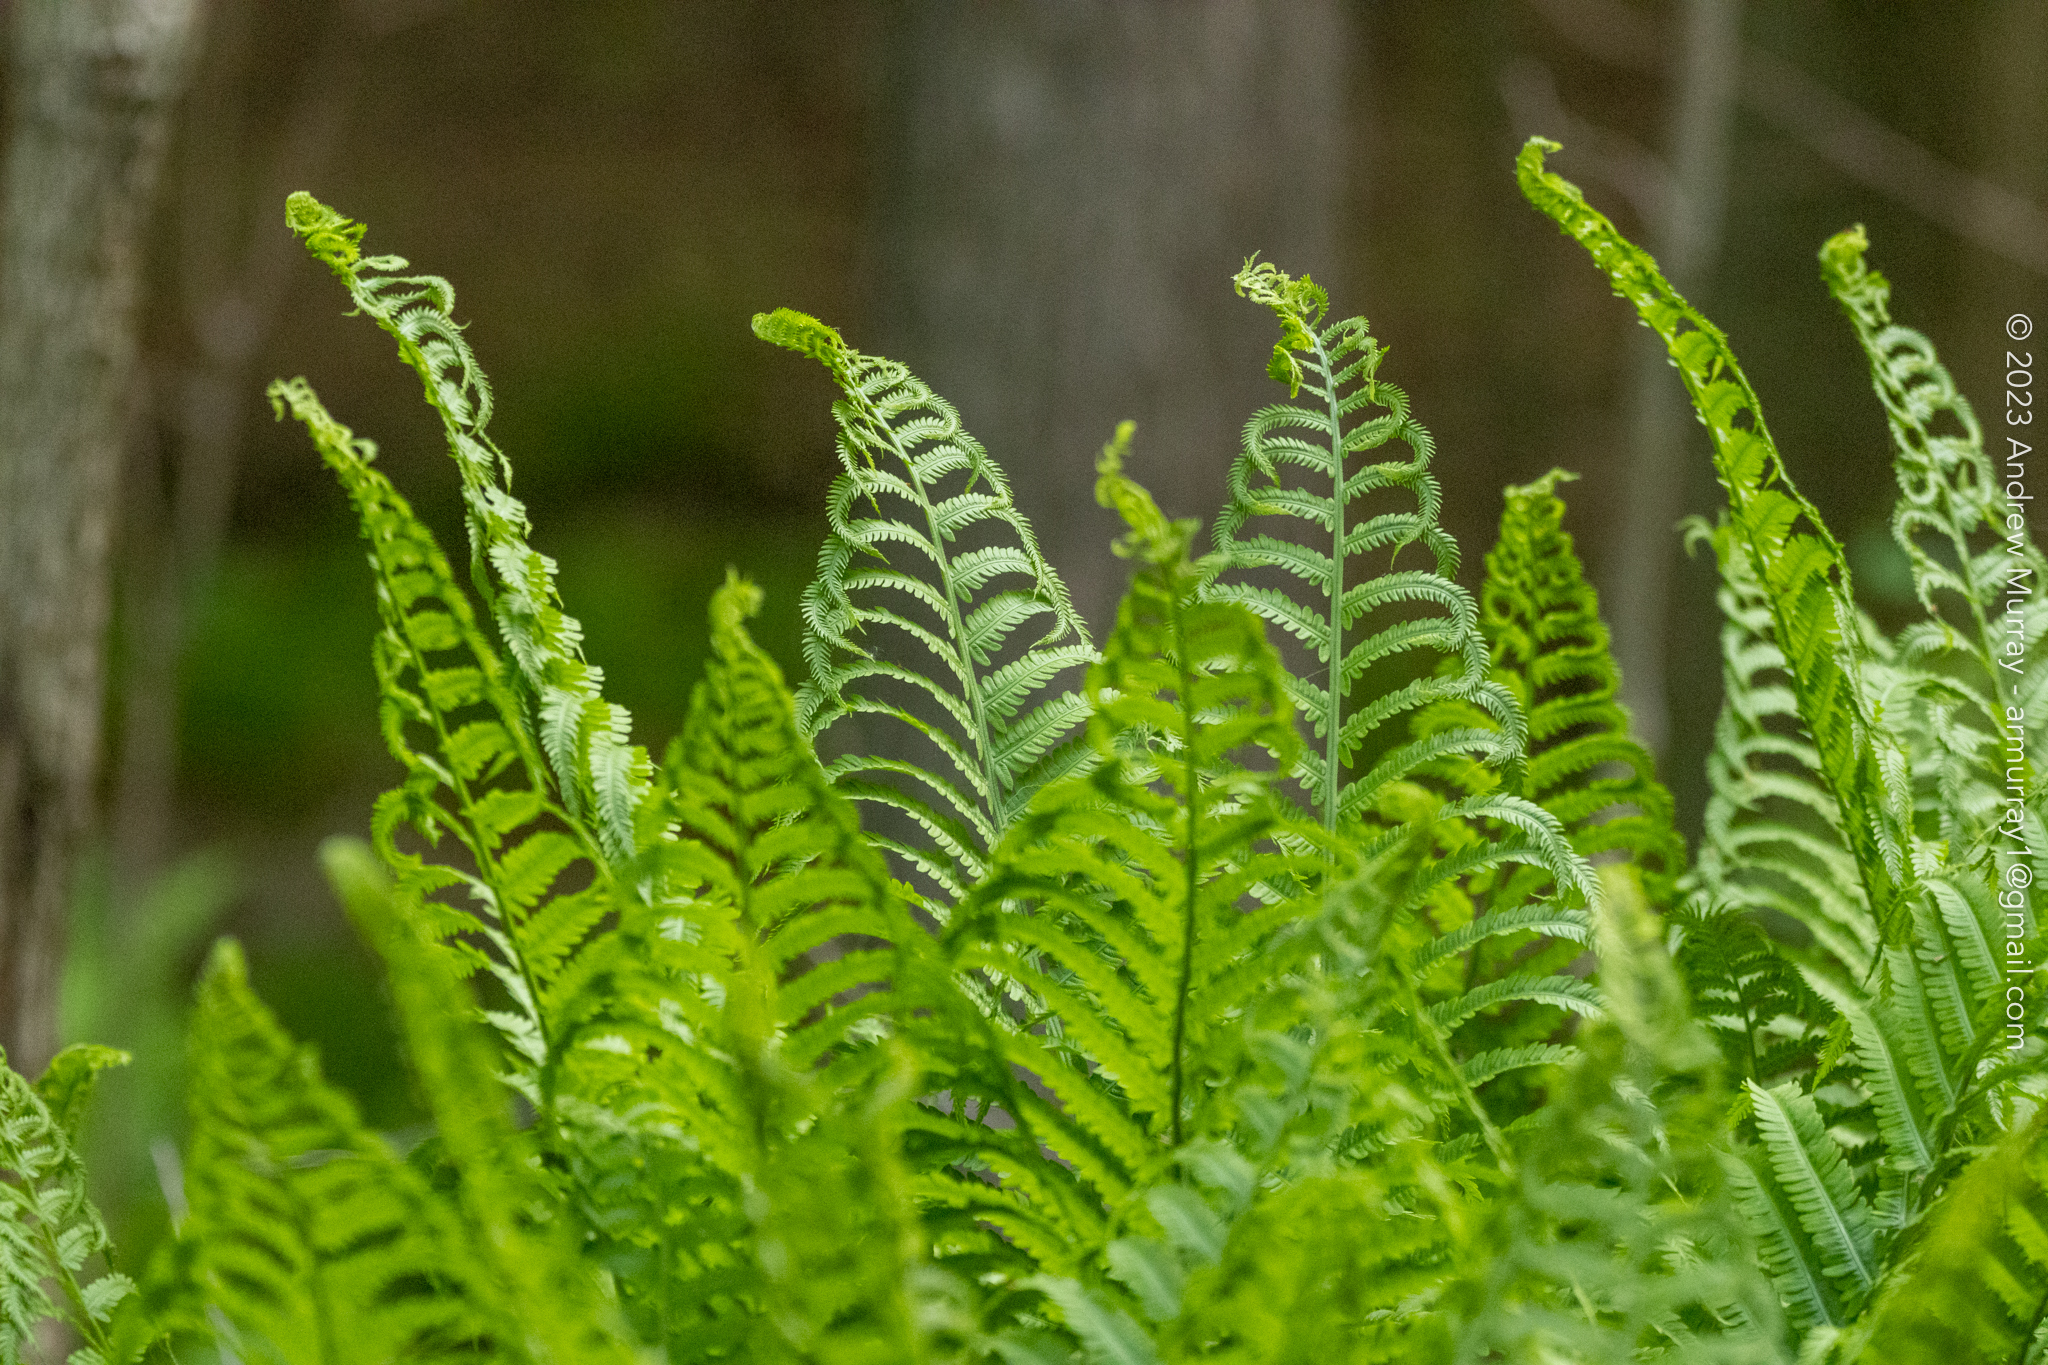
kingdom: Plantae
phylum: Tracheophyta
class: Polypodiopsida
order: Polypodiales
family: Onocleaceae
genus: Matteuccia
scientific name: Matteuccia struthiopteris
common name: Ostrich fern
